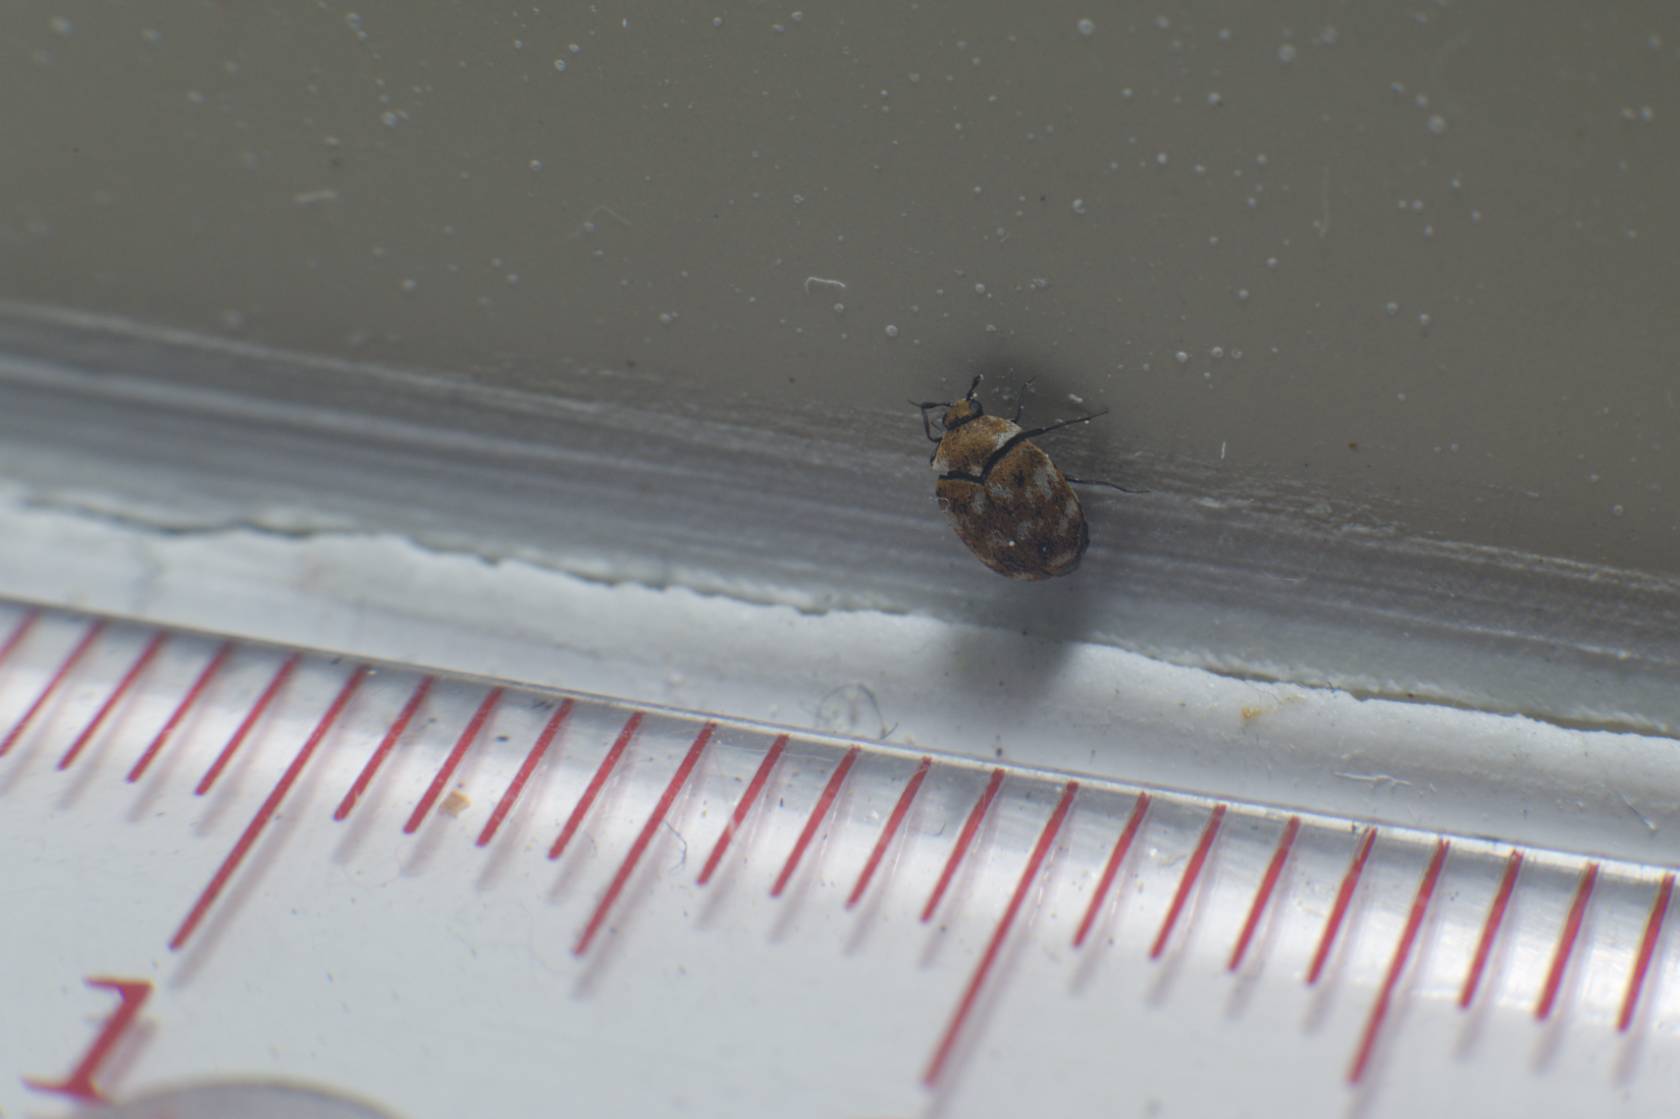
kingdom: Animalia
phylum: Arthropoda
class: Insecta
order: Coleoptera
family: Dermestidae
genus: Anthrenus
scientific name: Anthrenus verbasci
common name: Varied carpet beetle
